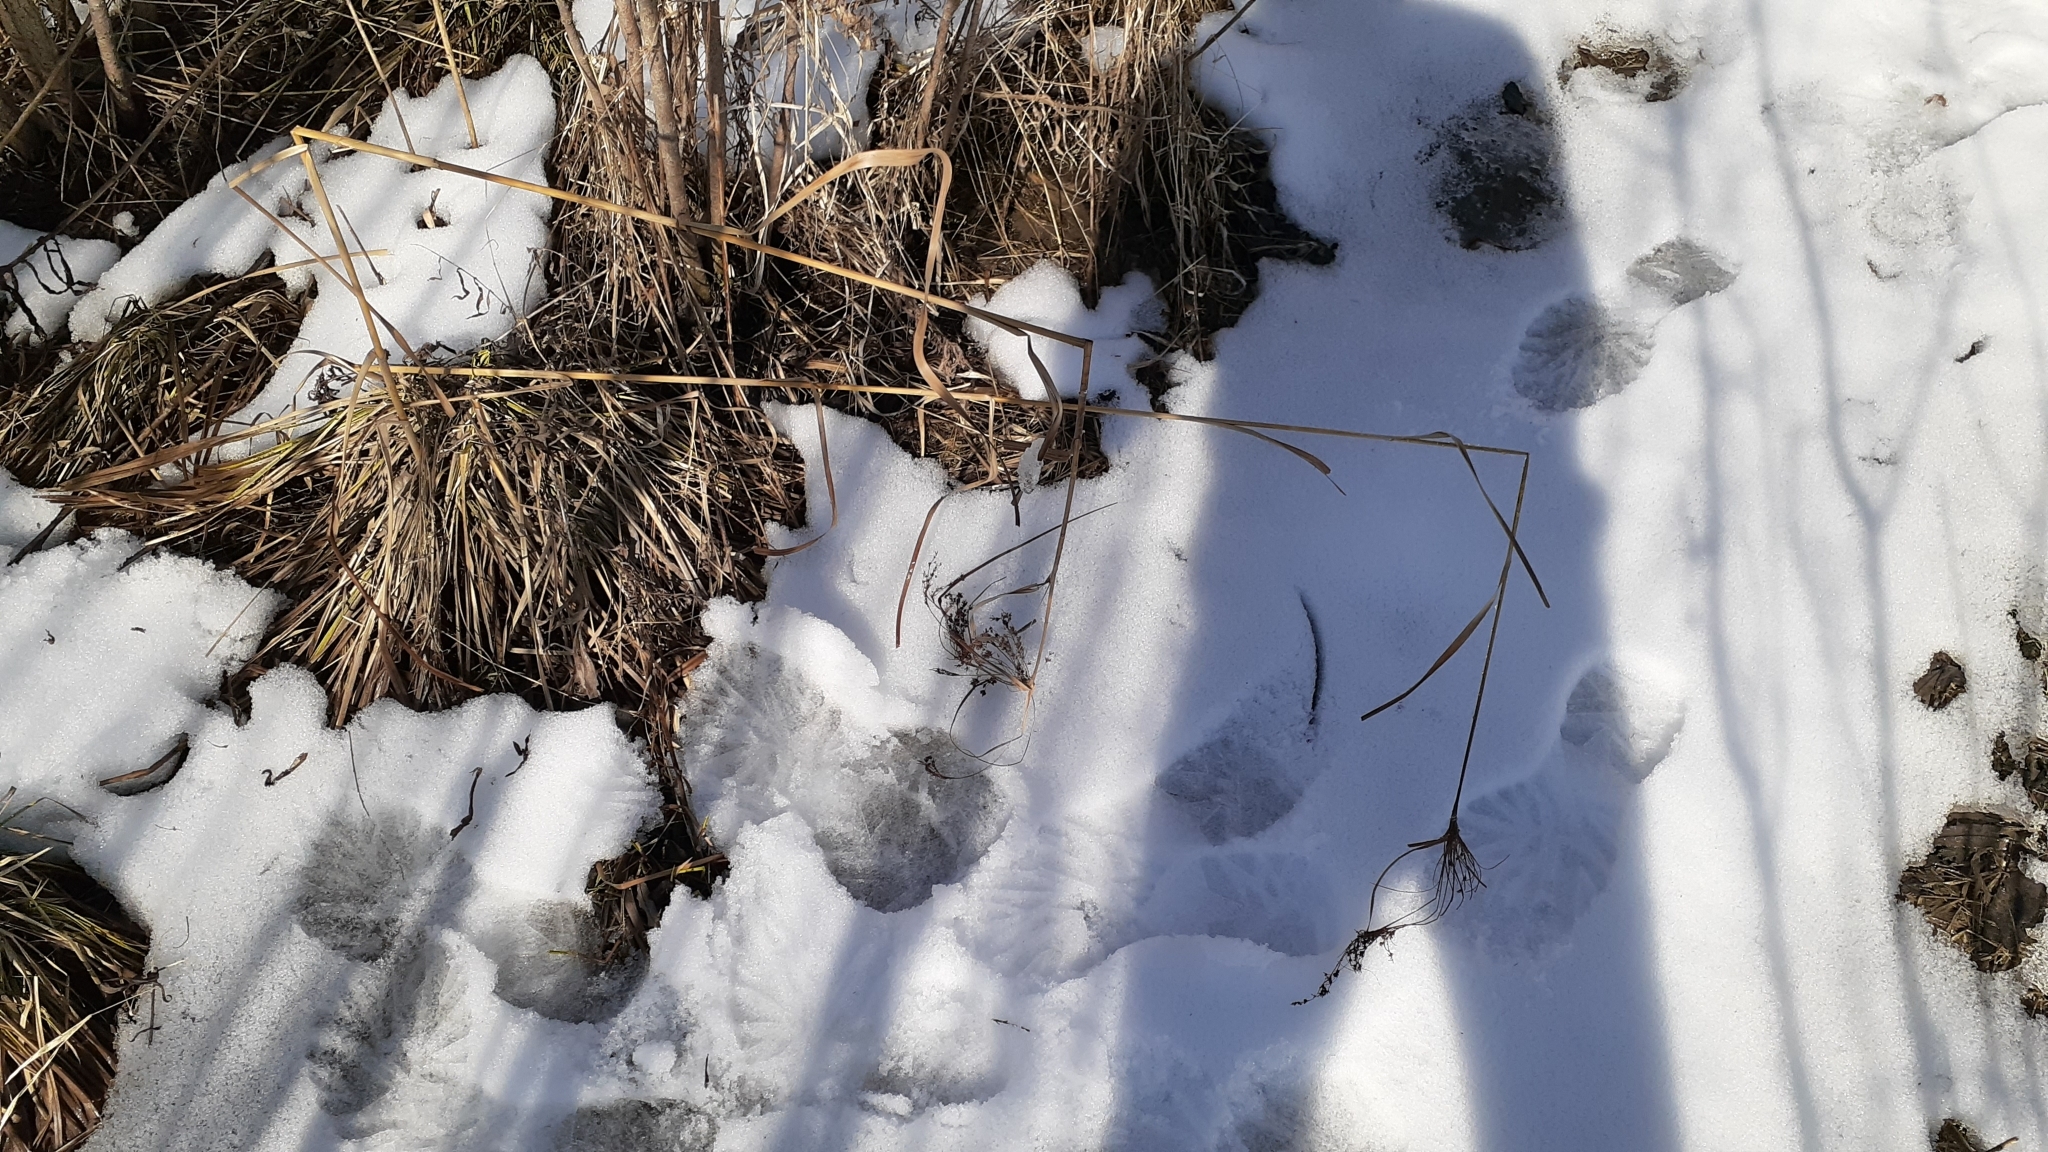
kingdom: Plantae
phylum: Tracheophyta
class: Liliopsida
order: Poales
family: Cyperaceae
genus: Scirpus
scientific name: Scirpus cyperinus
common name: Black-sheathed bulrush
